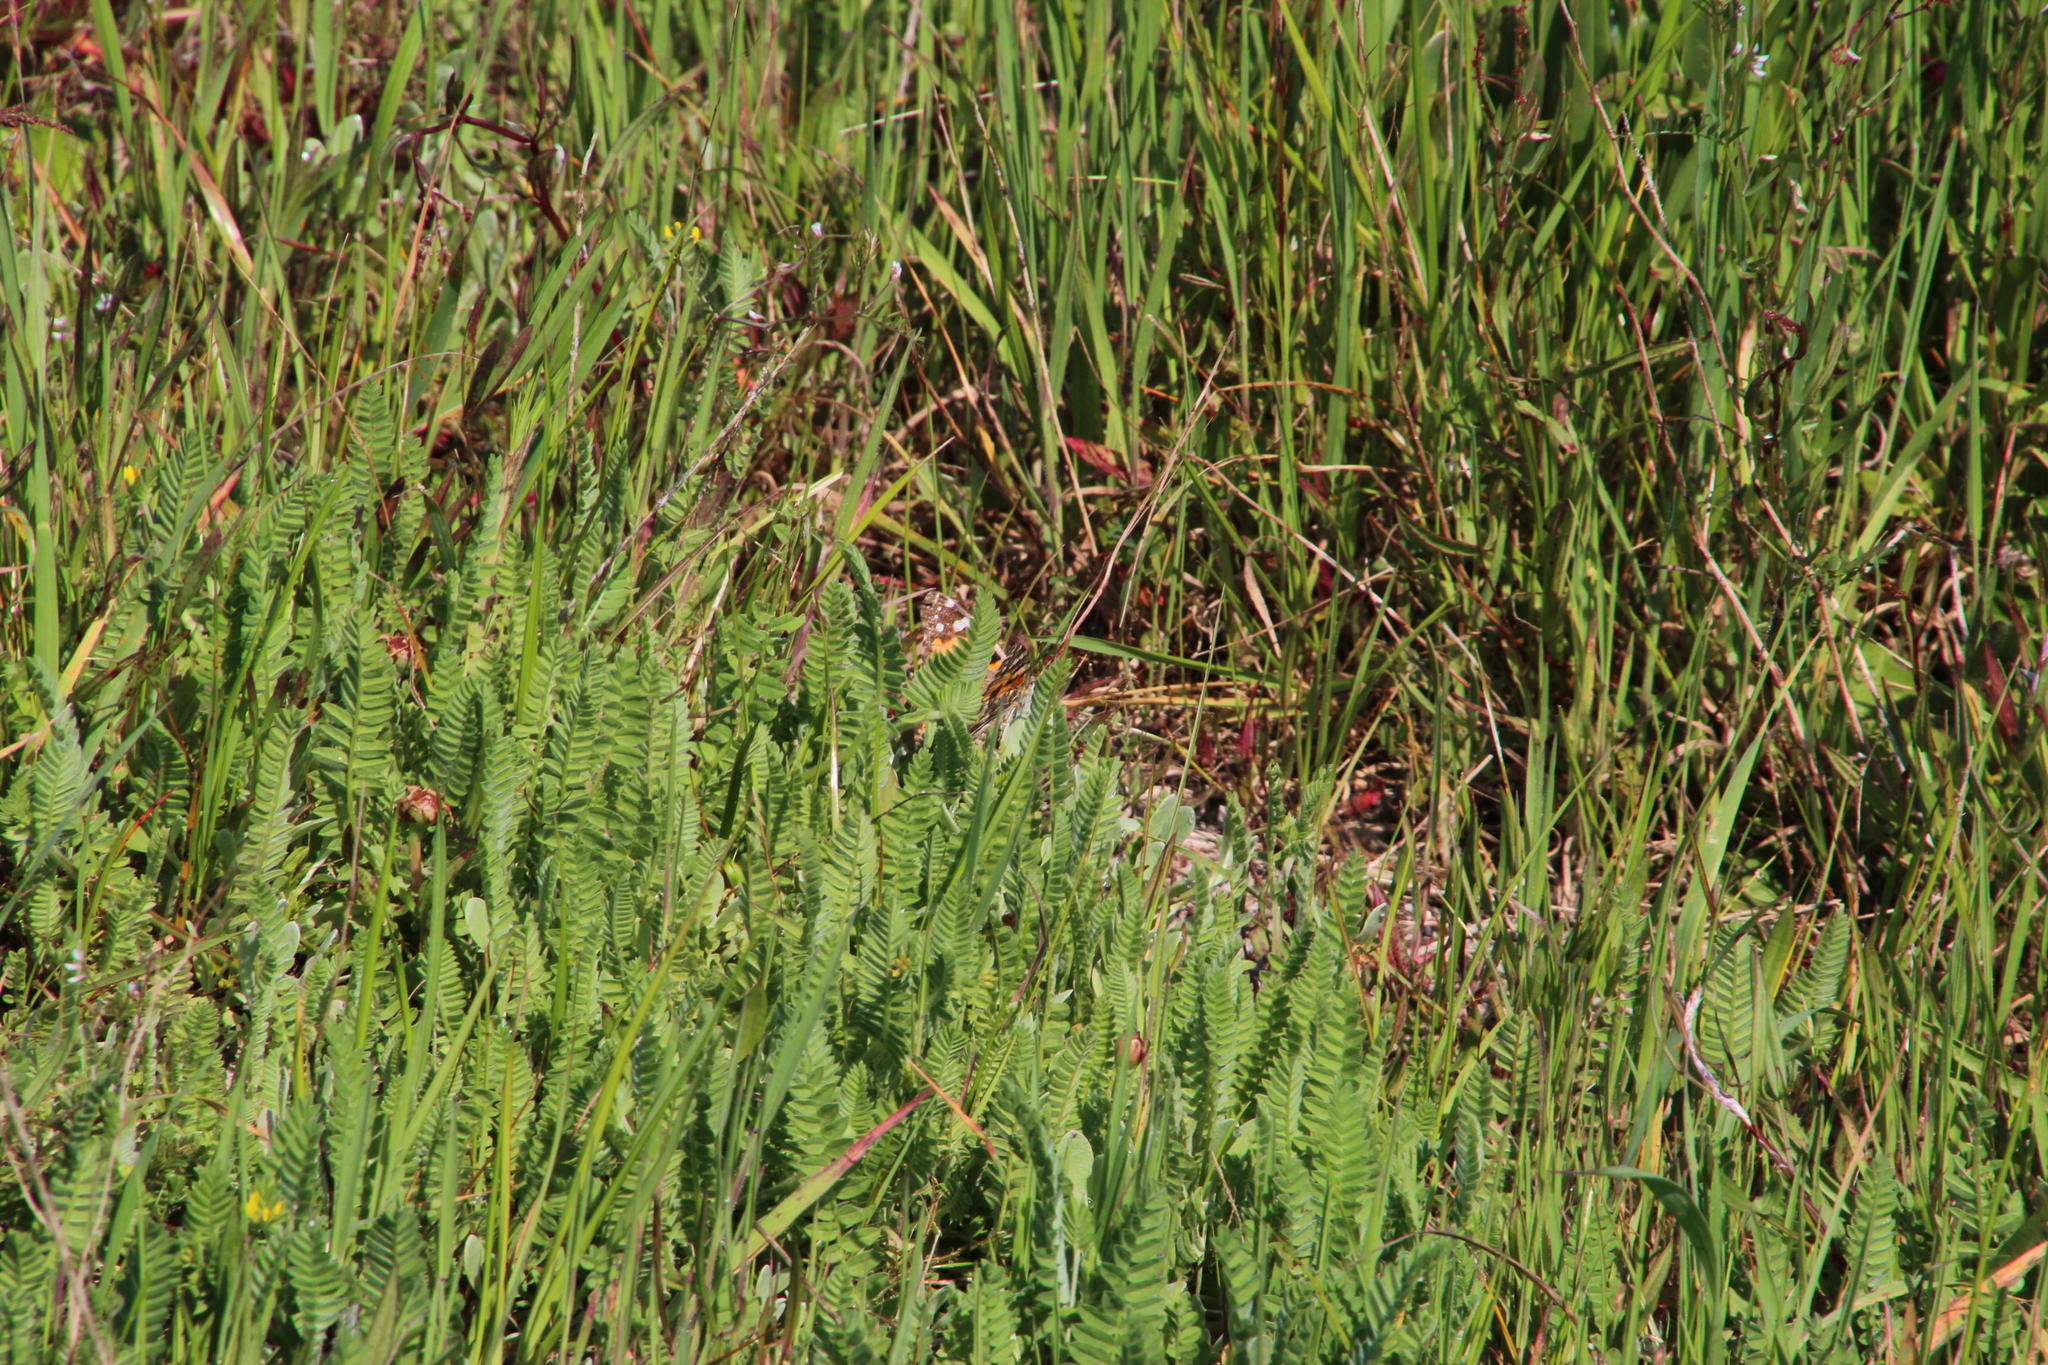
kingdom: Plantae
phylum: Tracheophyta
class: Magnoliopsida
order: Fabales
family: Fabaceae
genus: Ornithopus
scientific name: Ornithopus compressus
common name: Yellow serradella
